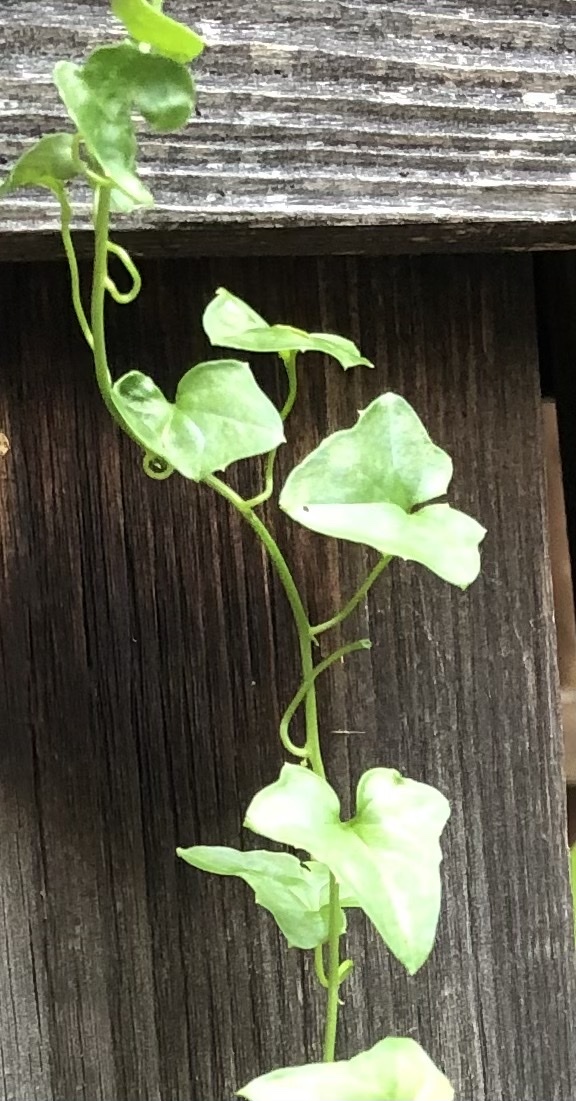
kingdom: Plantae
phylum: Tracheophyta
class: Magnoliopsida
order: Ranunculales
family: Menispermaceae
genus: Cocculus
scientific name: Cocculus carolinus
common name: Carolina moonseed
